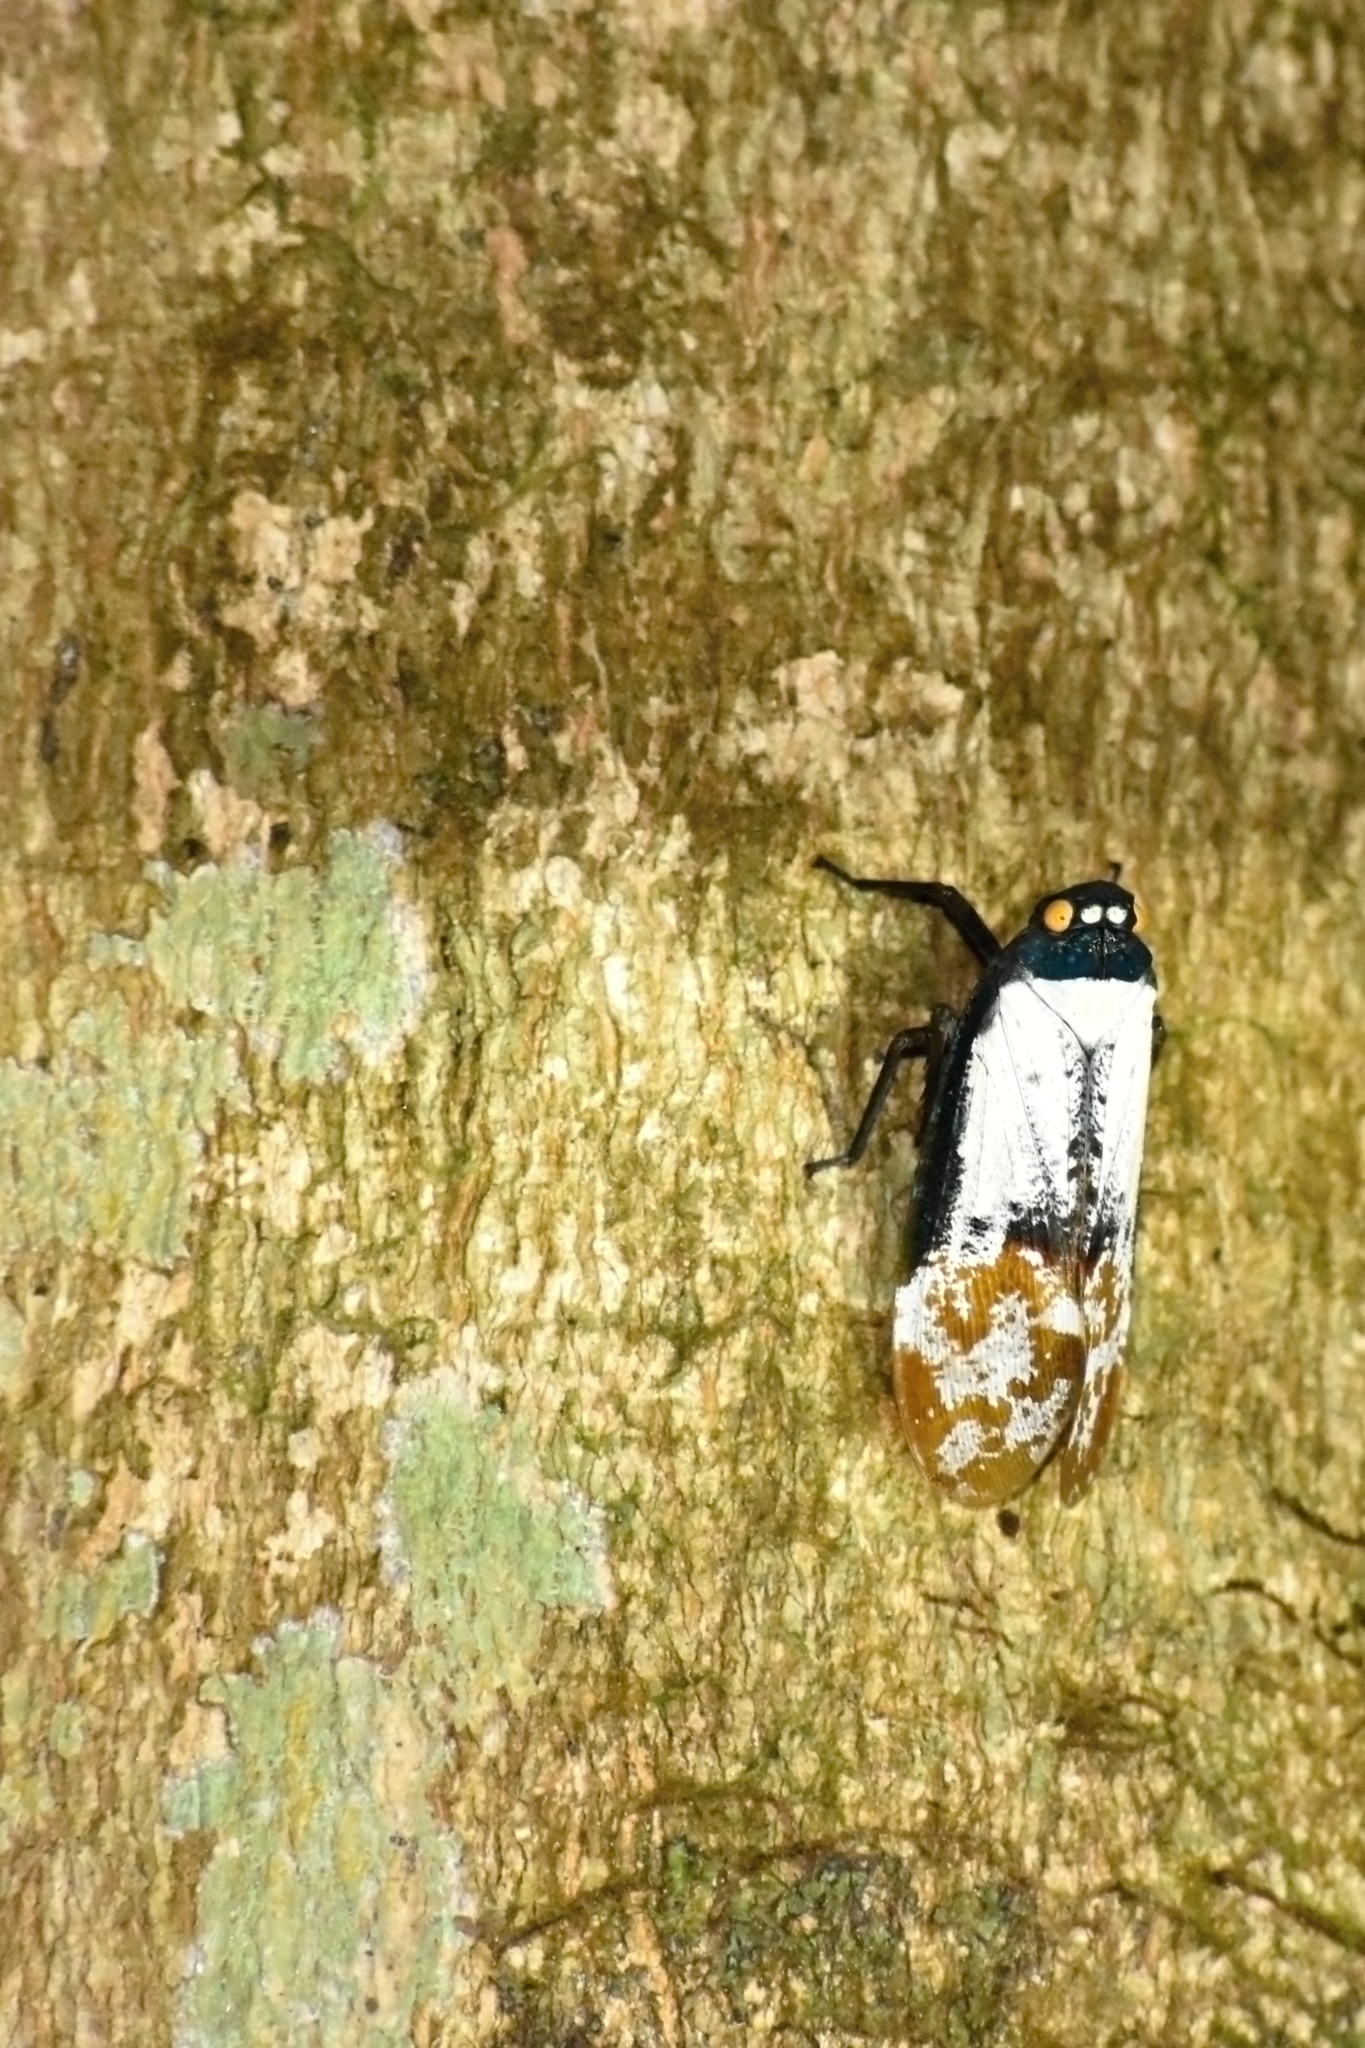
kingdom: Animalia
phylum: Arthropoda
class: Insecta
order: Hemiptera
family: Fulgoridae
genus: Penthicodes
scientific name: Penthicodes farinosa
